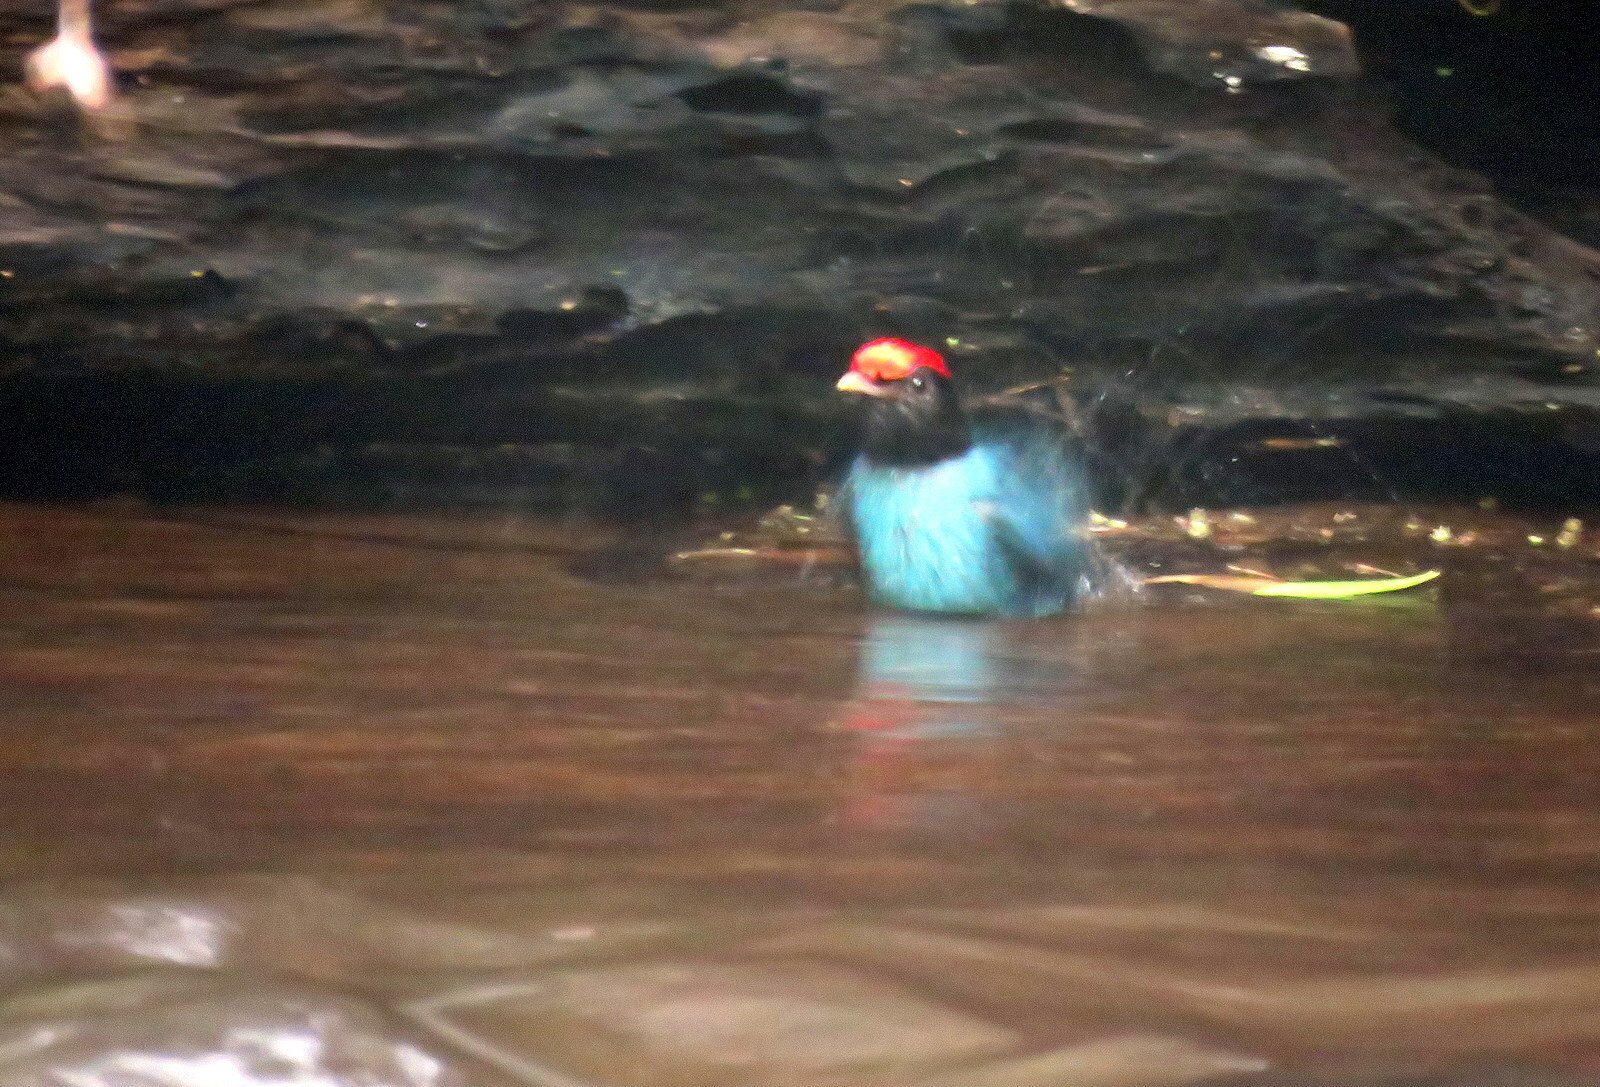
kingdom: Animalia
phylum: Chordata
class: Aves
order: Passeriformes
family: Pipridae
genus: Chiroxiphia
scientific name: Chiroxiphia caudata
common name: Blue manakin
